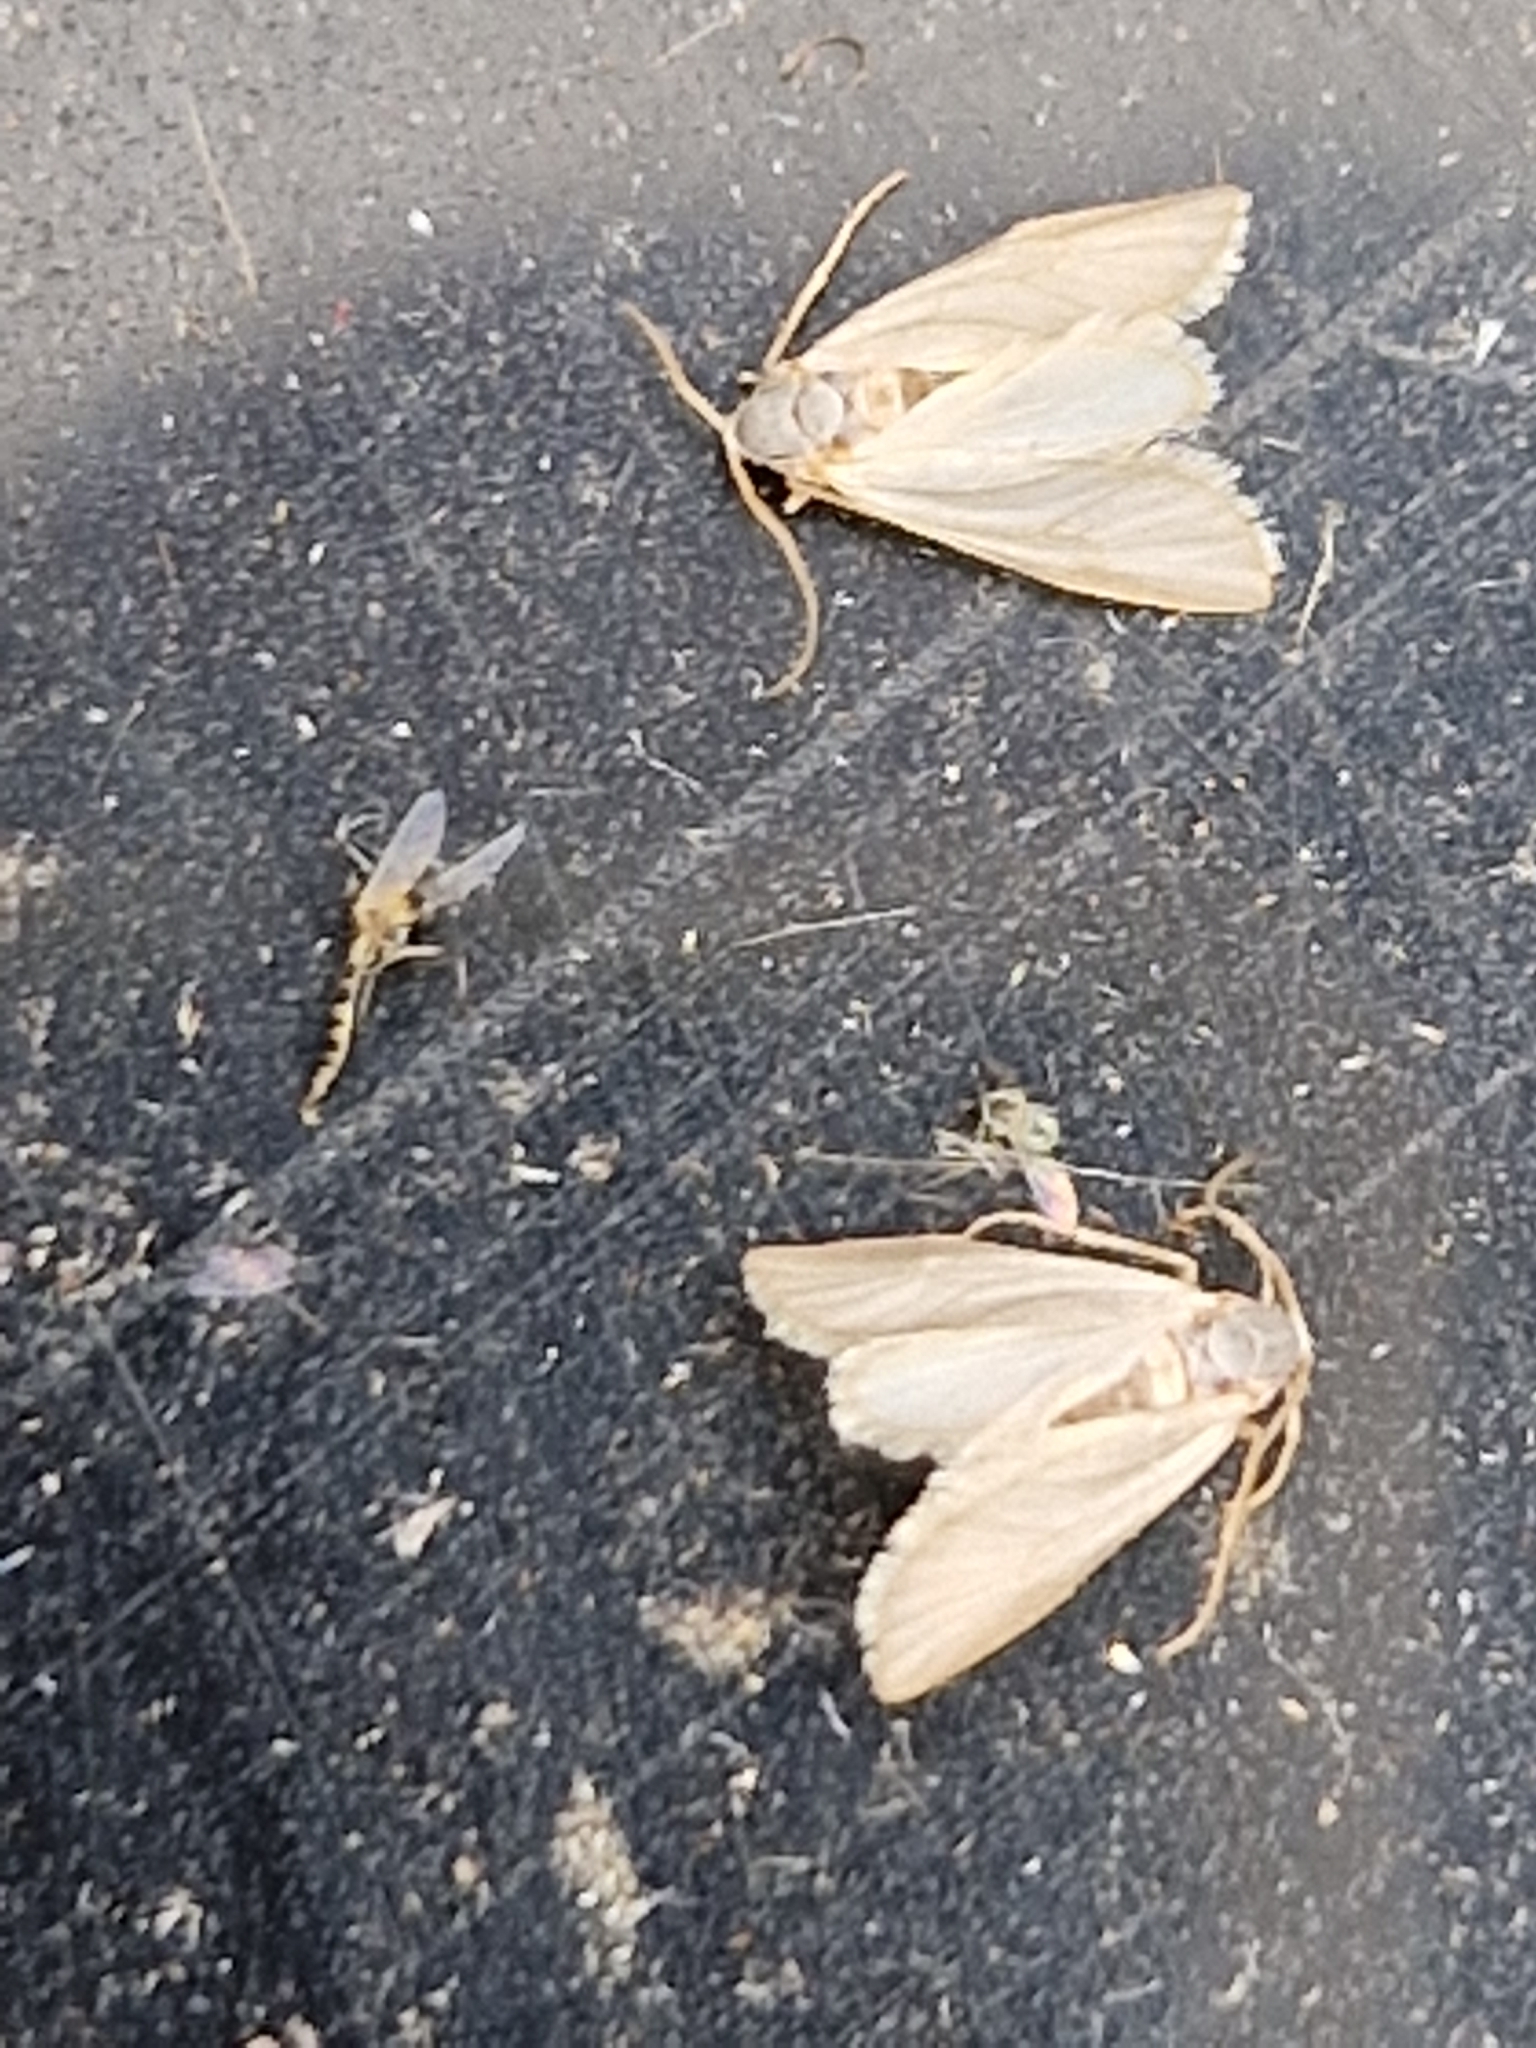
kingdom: Animalia
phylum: Arthropoda
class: Insecta
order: Lepidoptera
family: Crambidae
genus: Acentria
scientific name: Acentria ephemerella
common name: European water moth
